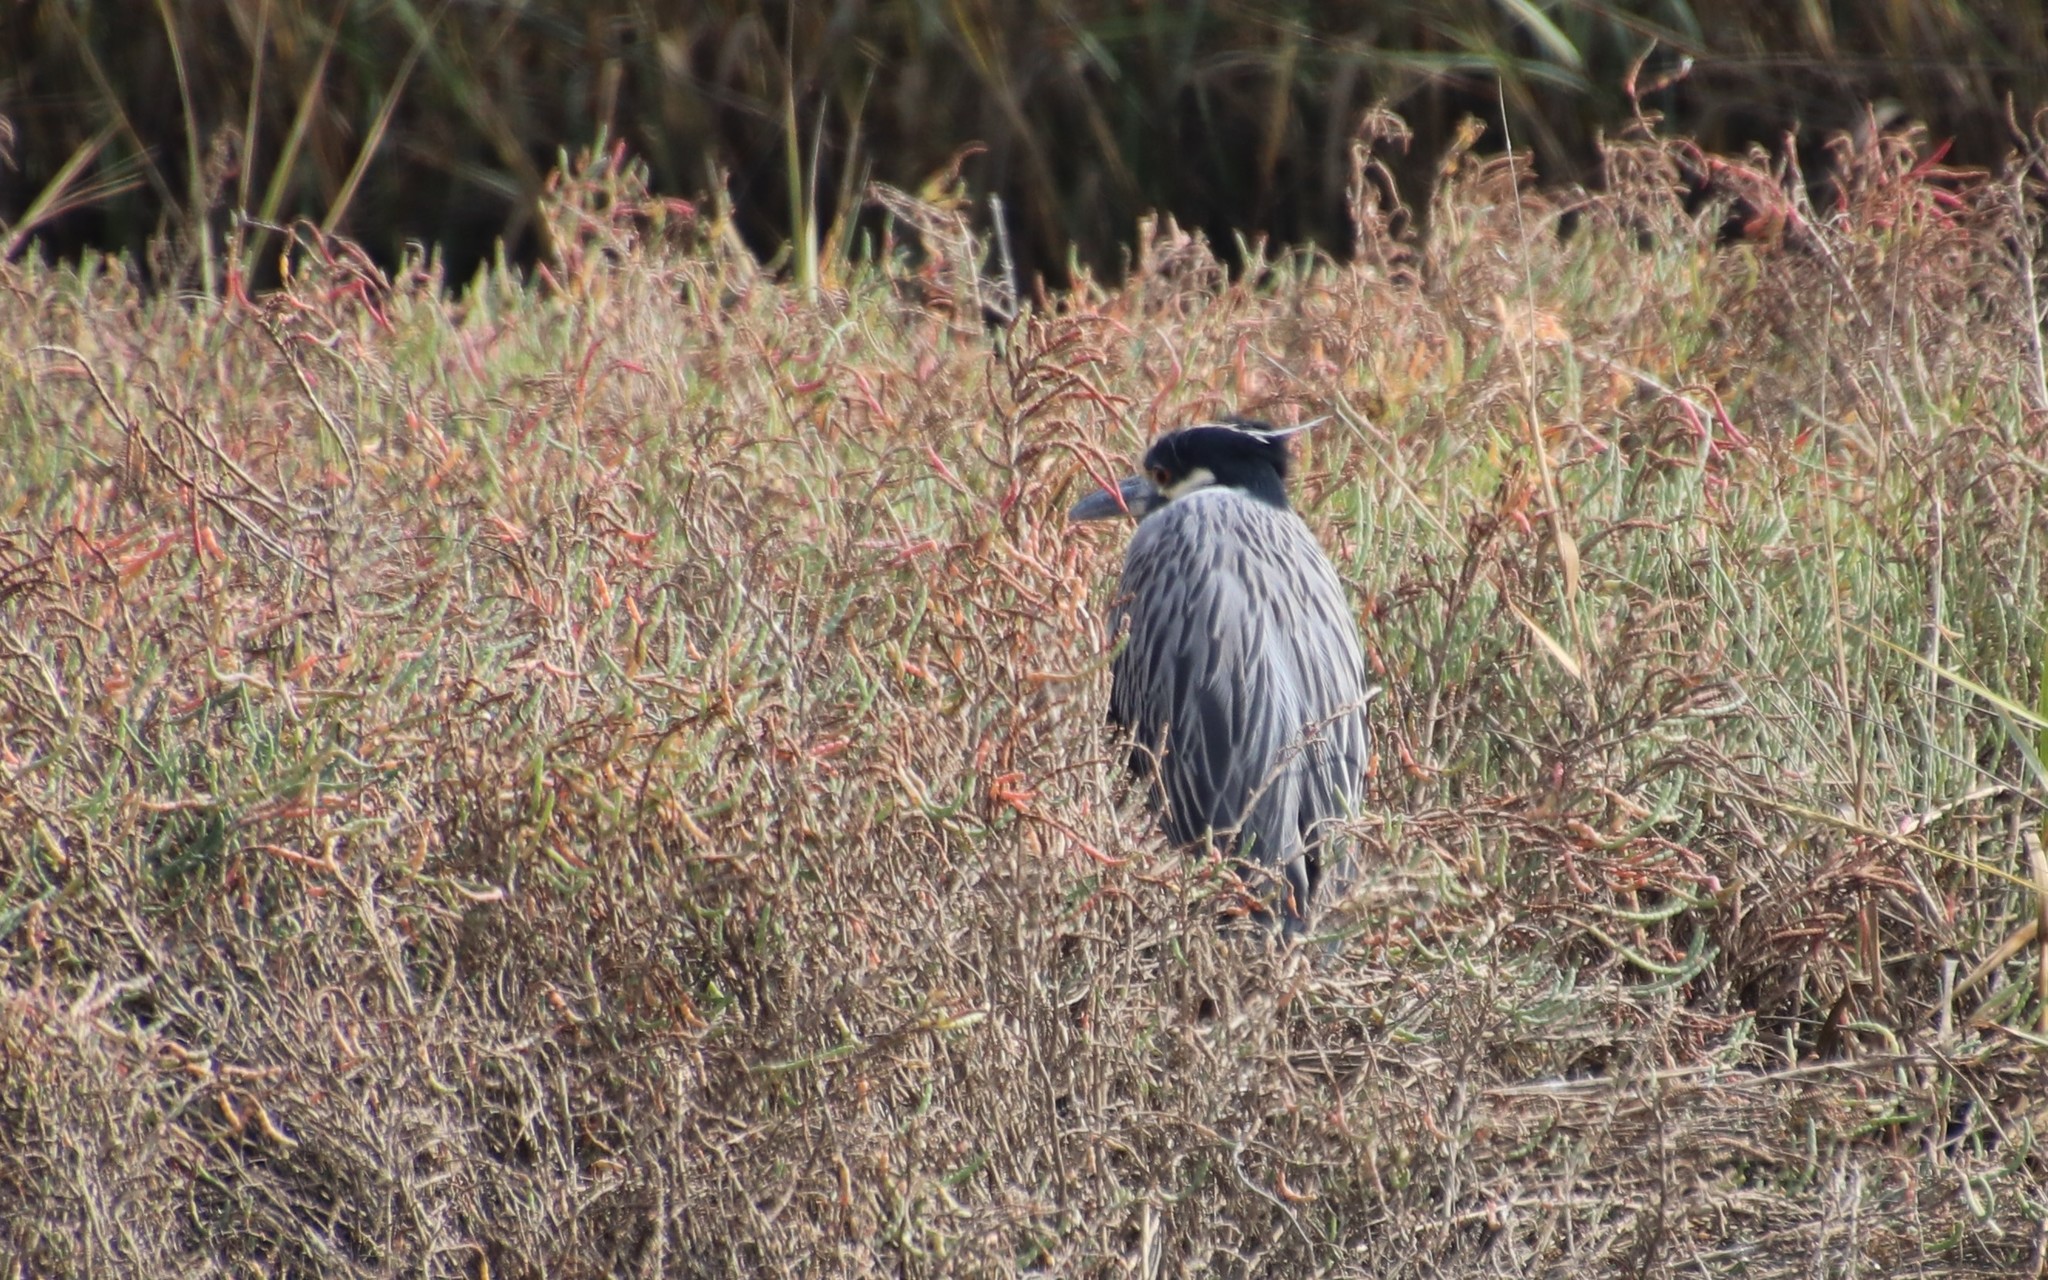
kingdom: Animalia
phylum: Chordata
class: Aves
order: Pelecaniformes
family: Ardeidae
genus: Nyctanassa
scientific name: Nyctanassa violacea
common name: Yellow-crowned night heron
